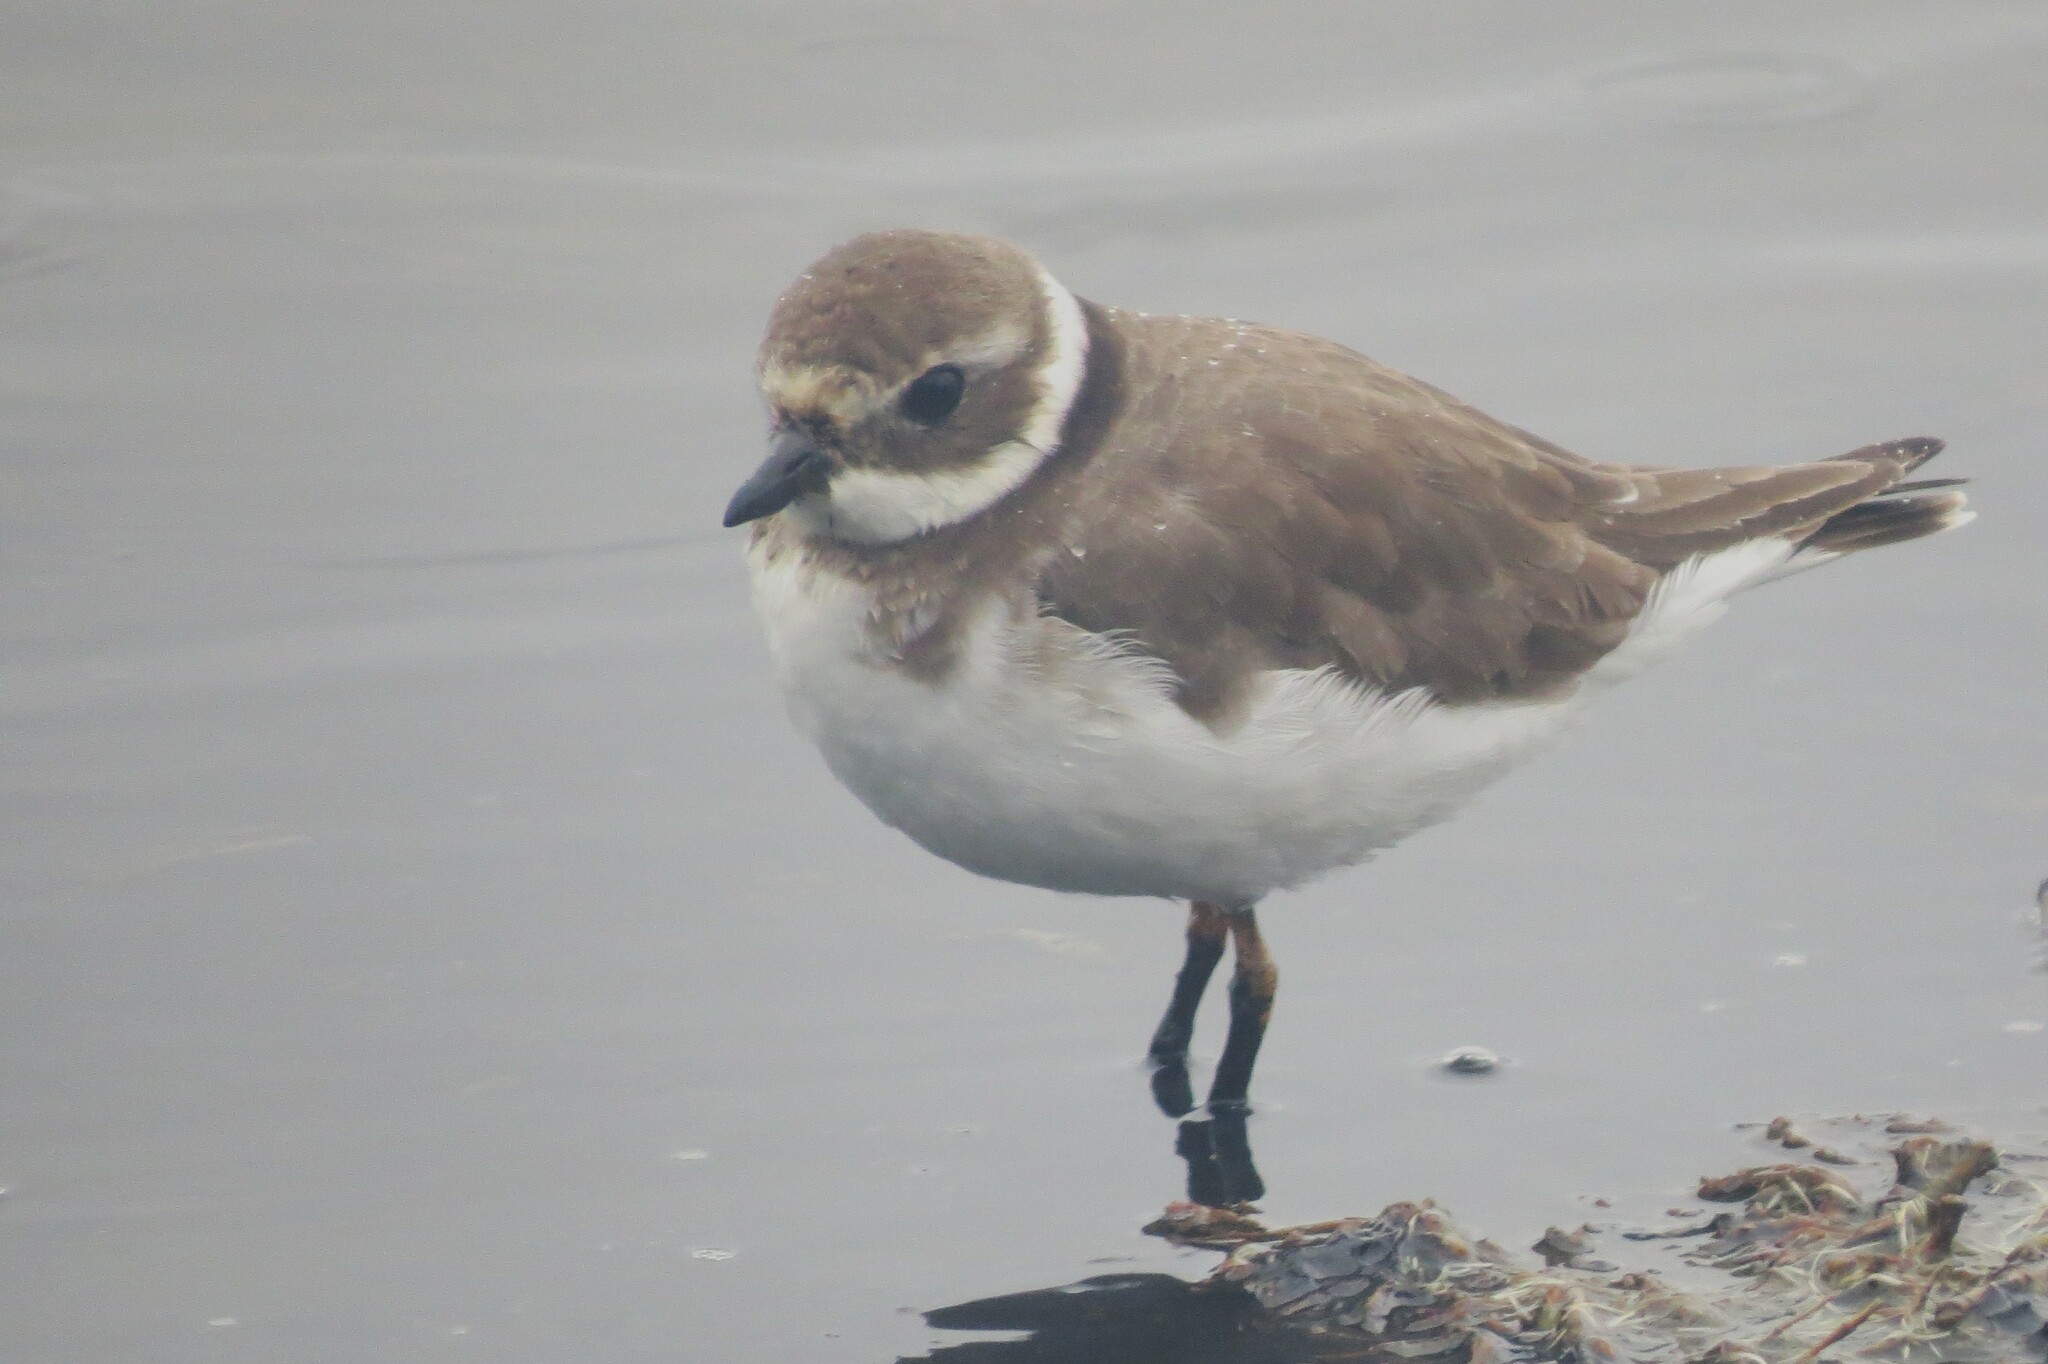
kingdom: Animalia
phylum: Chordata
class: Aves
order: Charadriiformes
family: Charadriidae
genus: Charadrius
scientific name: Charadrius hiaticula
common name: Common ringed plover
